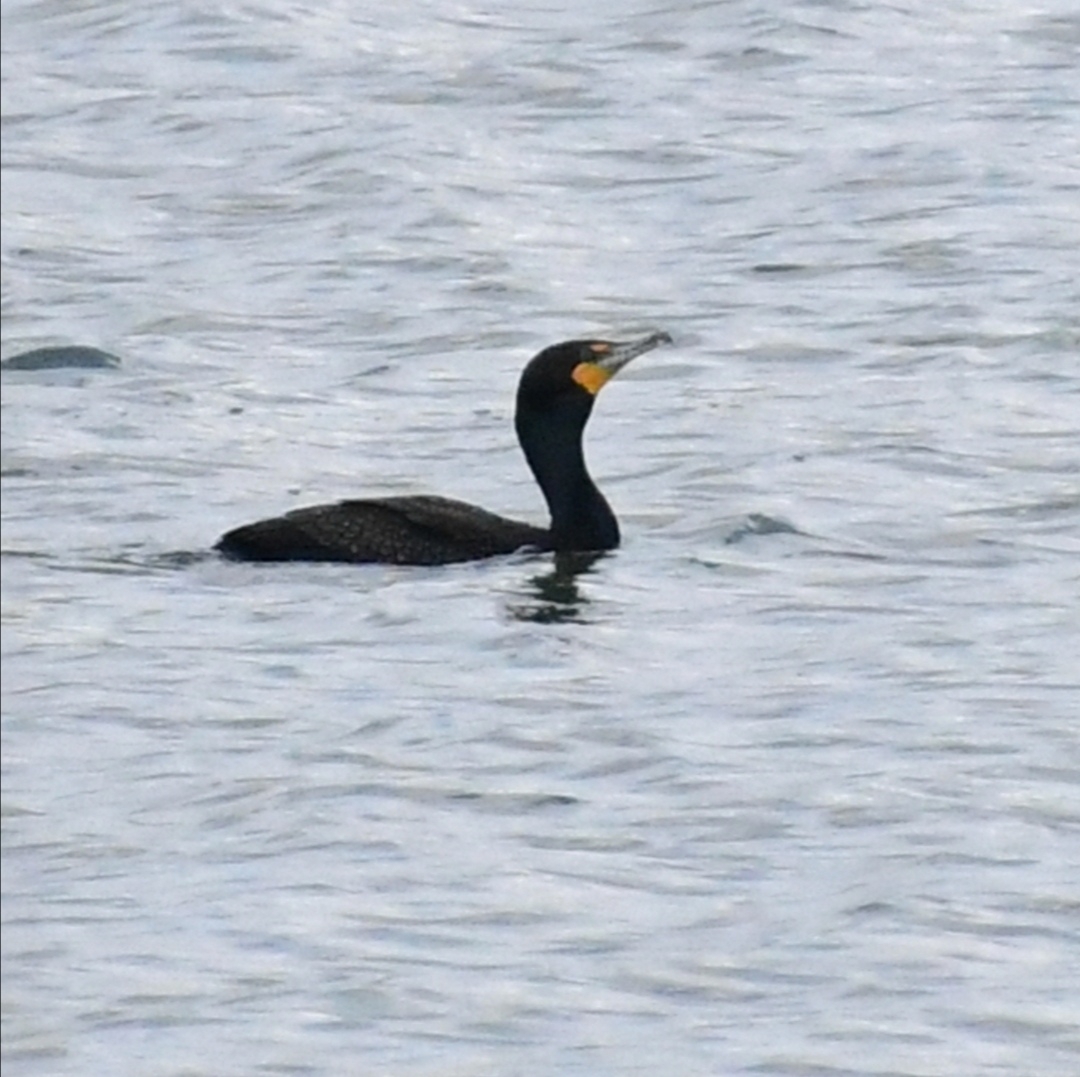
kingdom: Animalia
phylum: Chordata
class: Aves
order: Suliformes
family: Phalacrocoracidae
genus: Phalacrocorax
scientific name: Phalacrocorax auritus
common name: Double-crested cormorant
